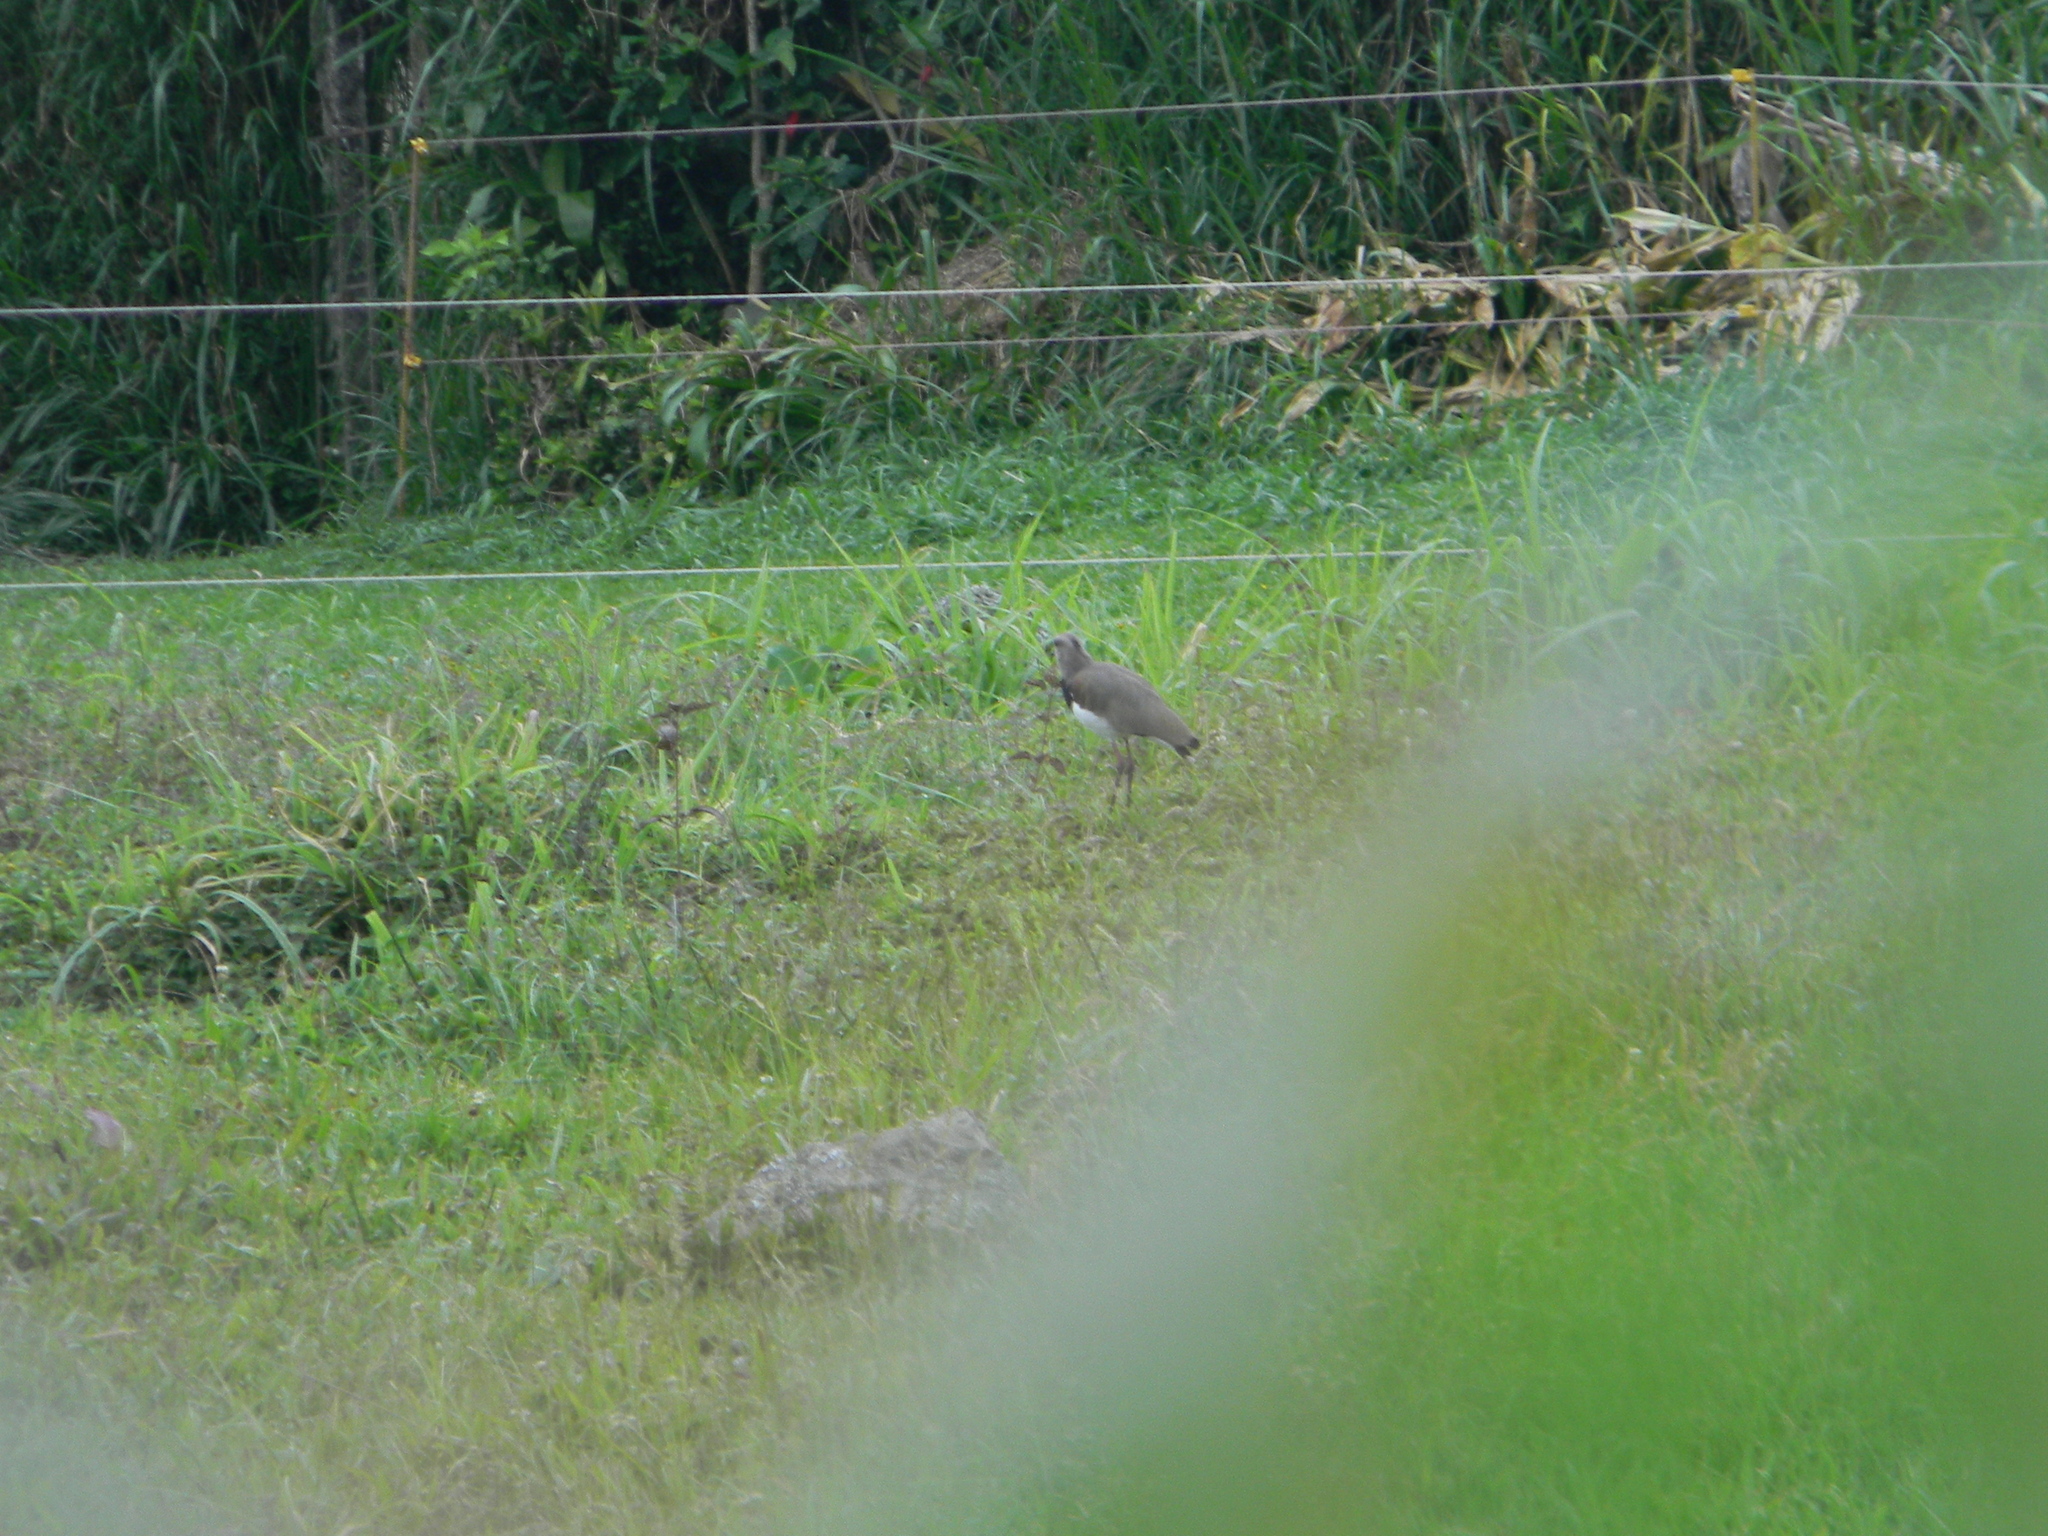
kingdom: Animalia
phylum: Chordata
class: Aves
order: Charadriiformes
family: Charadriidae
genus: Vanellus
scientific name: Vanellus chilensis
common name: Southern lapwing
